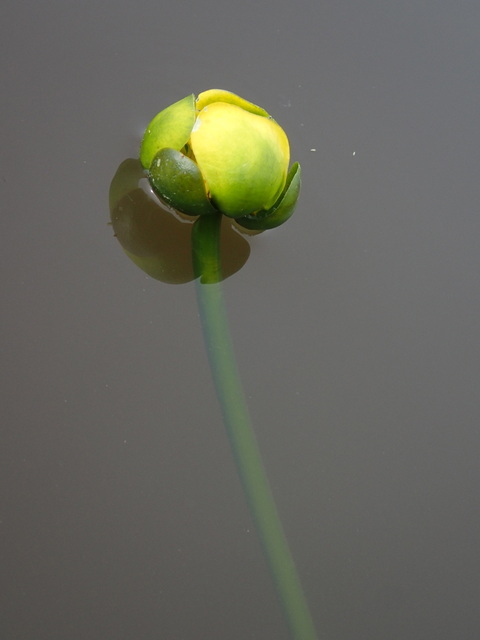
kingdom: Plantae
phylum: Tracheophyta
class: Magnoliopsida
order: Nymphaeales
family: Nymphaeaceae
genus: Nuphar
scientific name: Nuphar advena
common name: Spatter-dock
